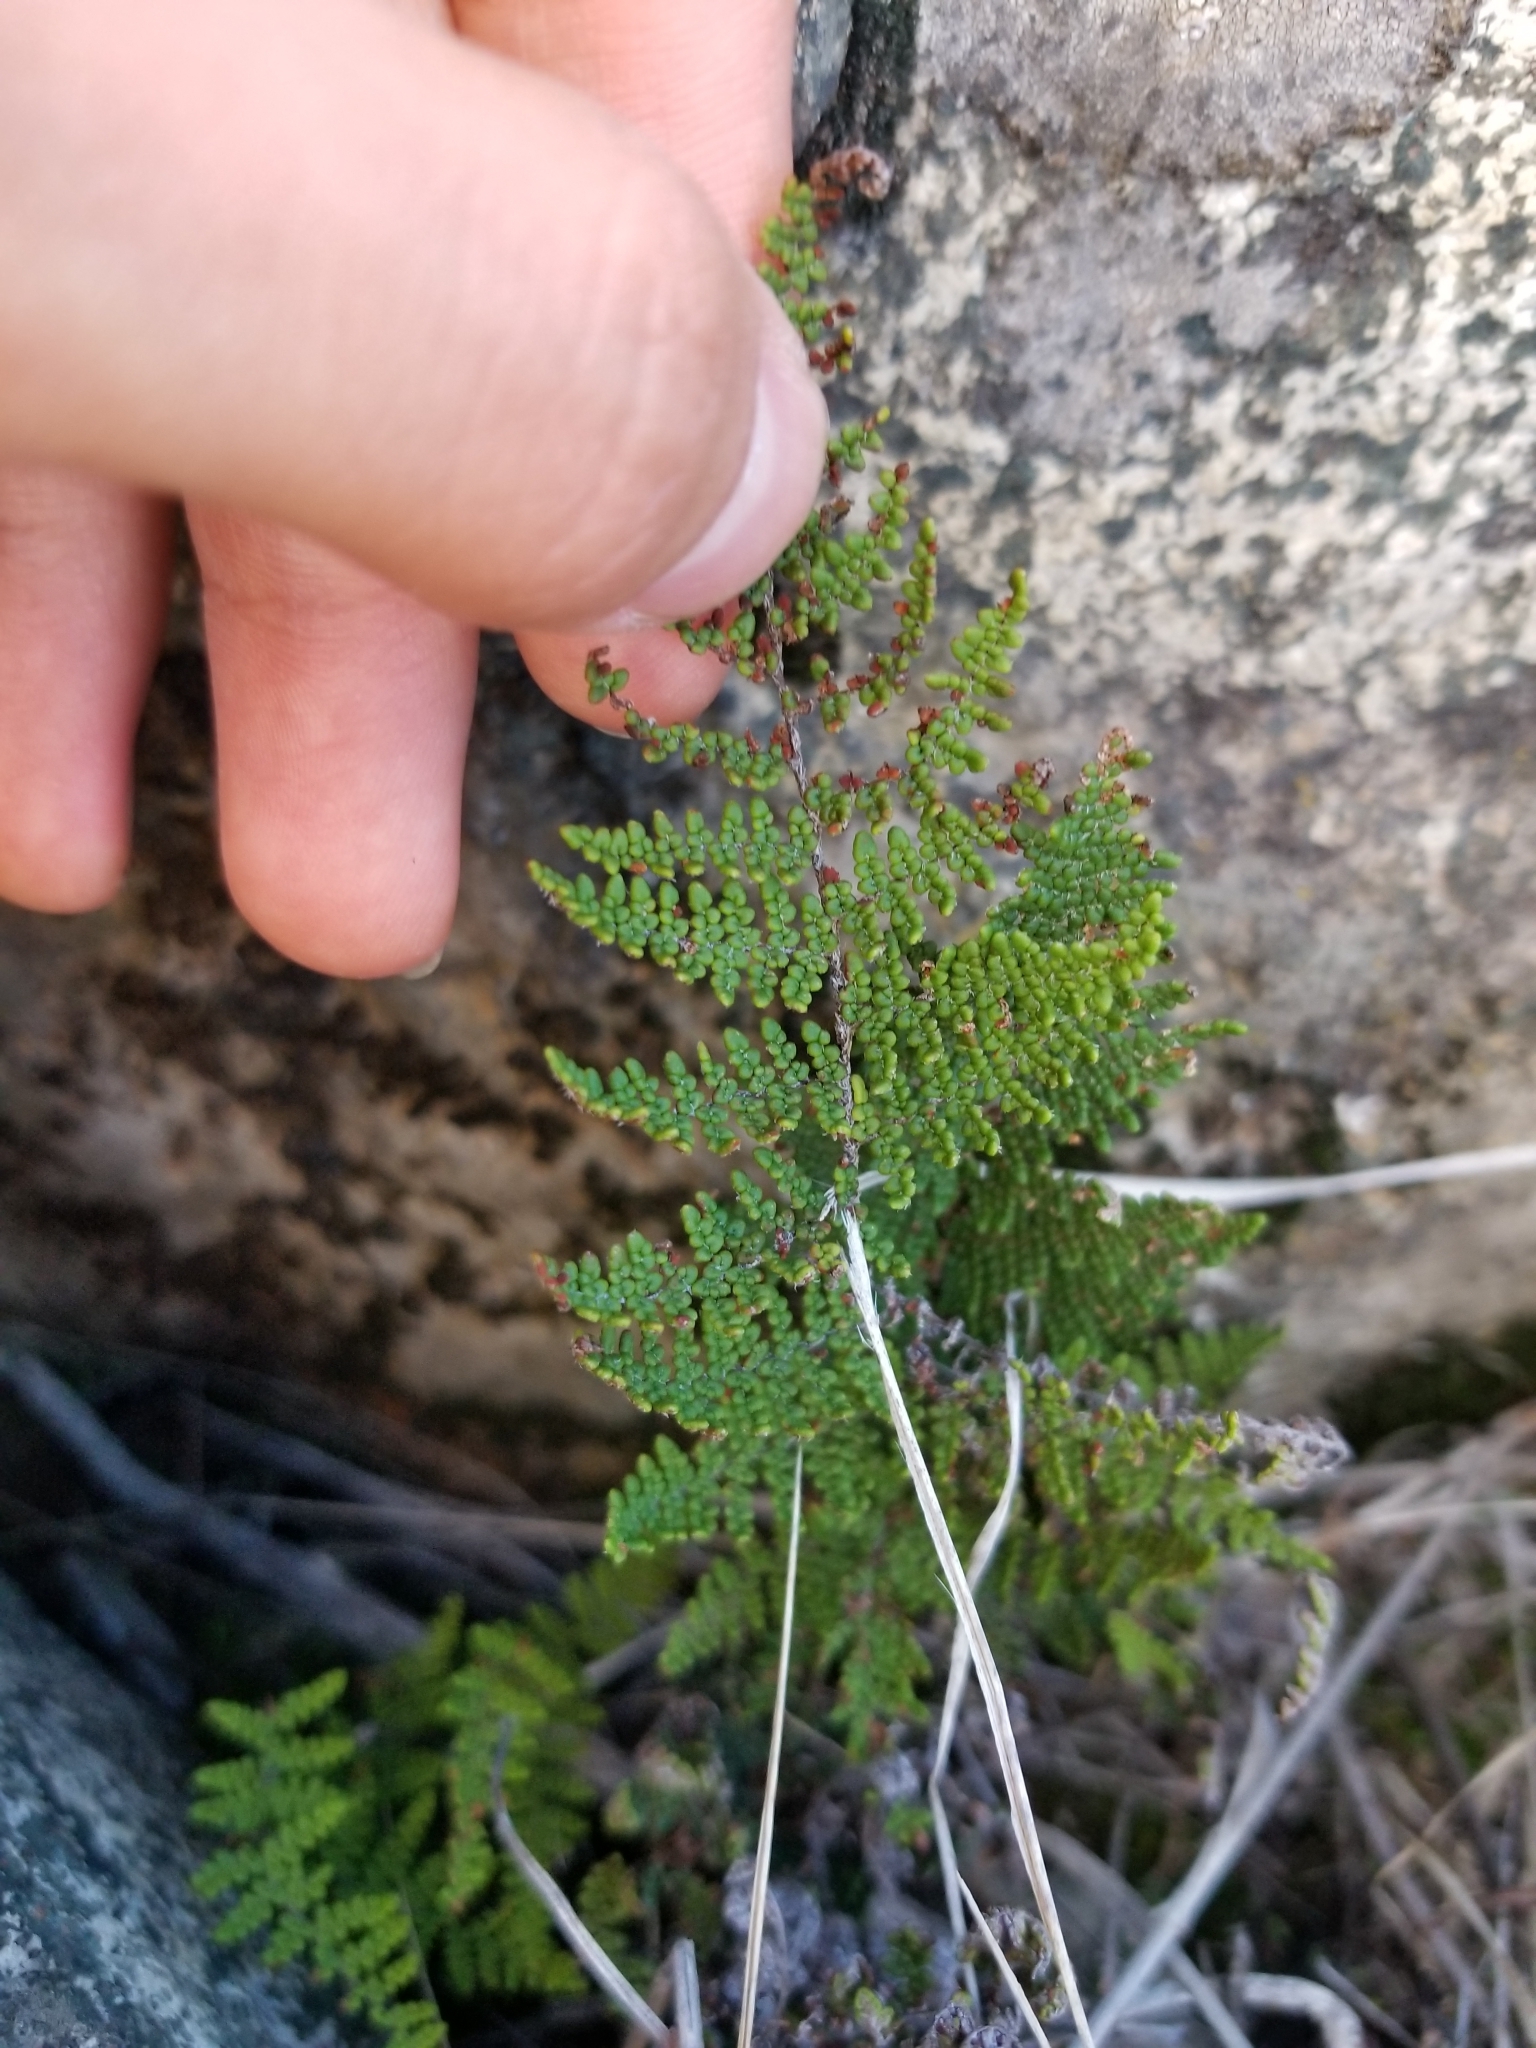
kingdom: Plantae
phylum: Tracheophyta
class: Polypodiopsida
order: Polypodiales
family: Pteridaceae
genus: Myriopteris
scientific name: Myriopteris clevelandii
